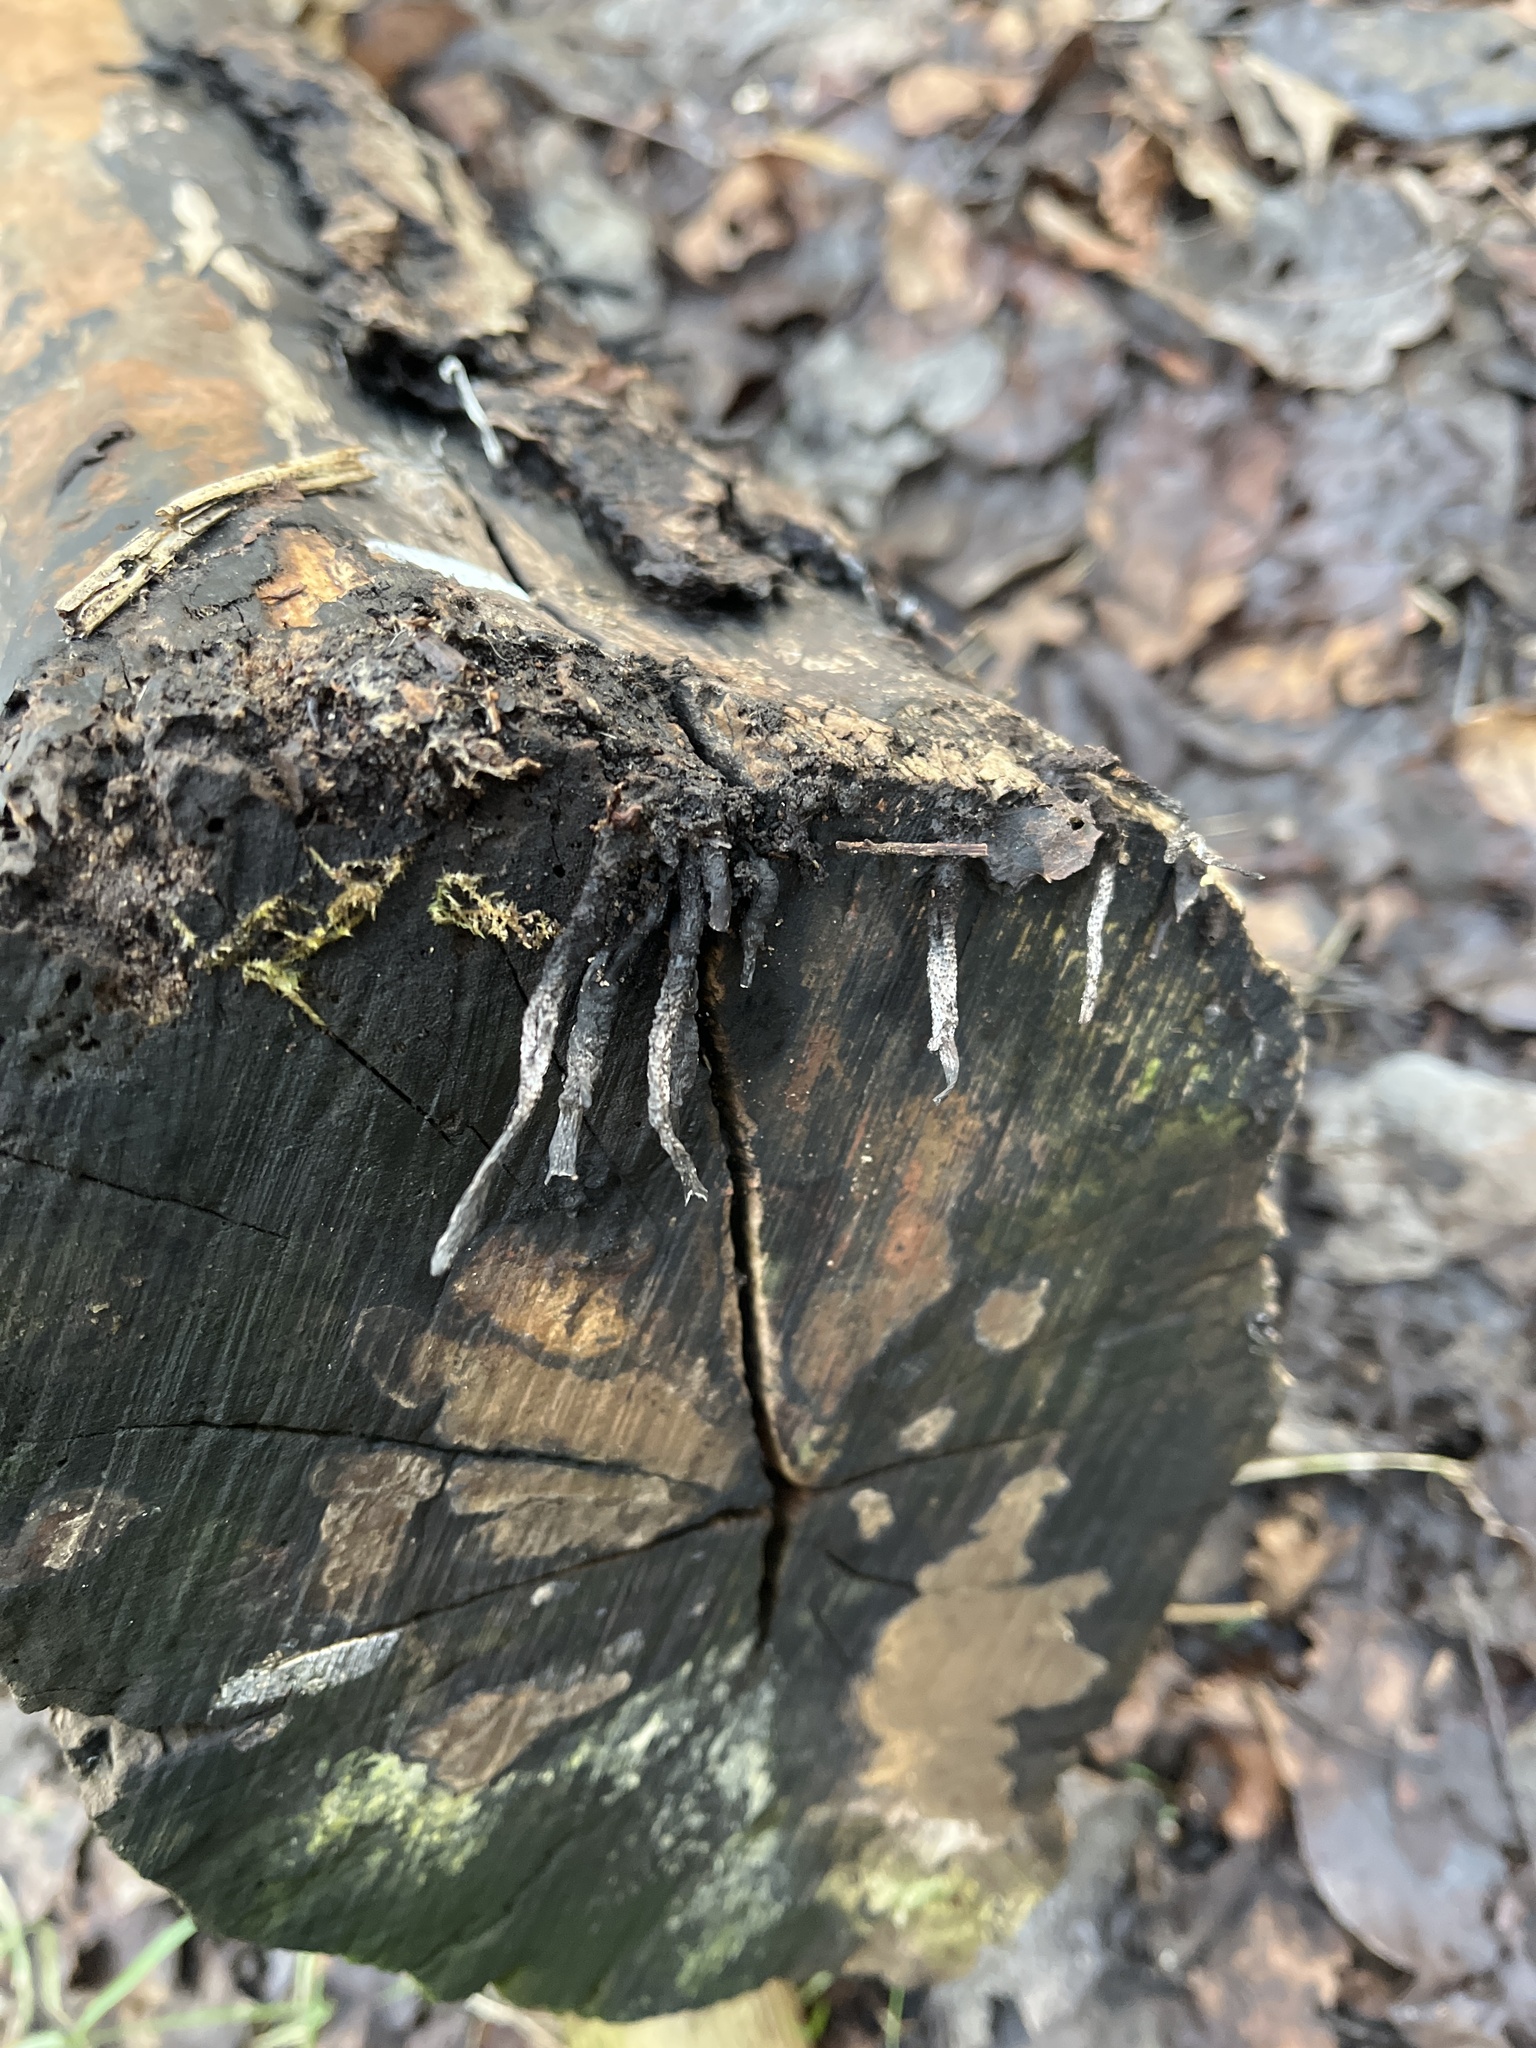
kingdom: Fungi
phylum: Ascomycota
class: Sordariomycetes
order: Xylariales
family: Xylariaceae
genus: Xylaria
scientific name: Xylaria hypoxylon
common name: Candle-snuff fungus
